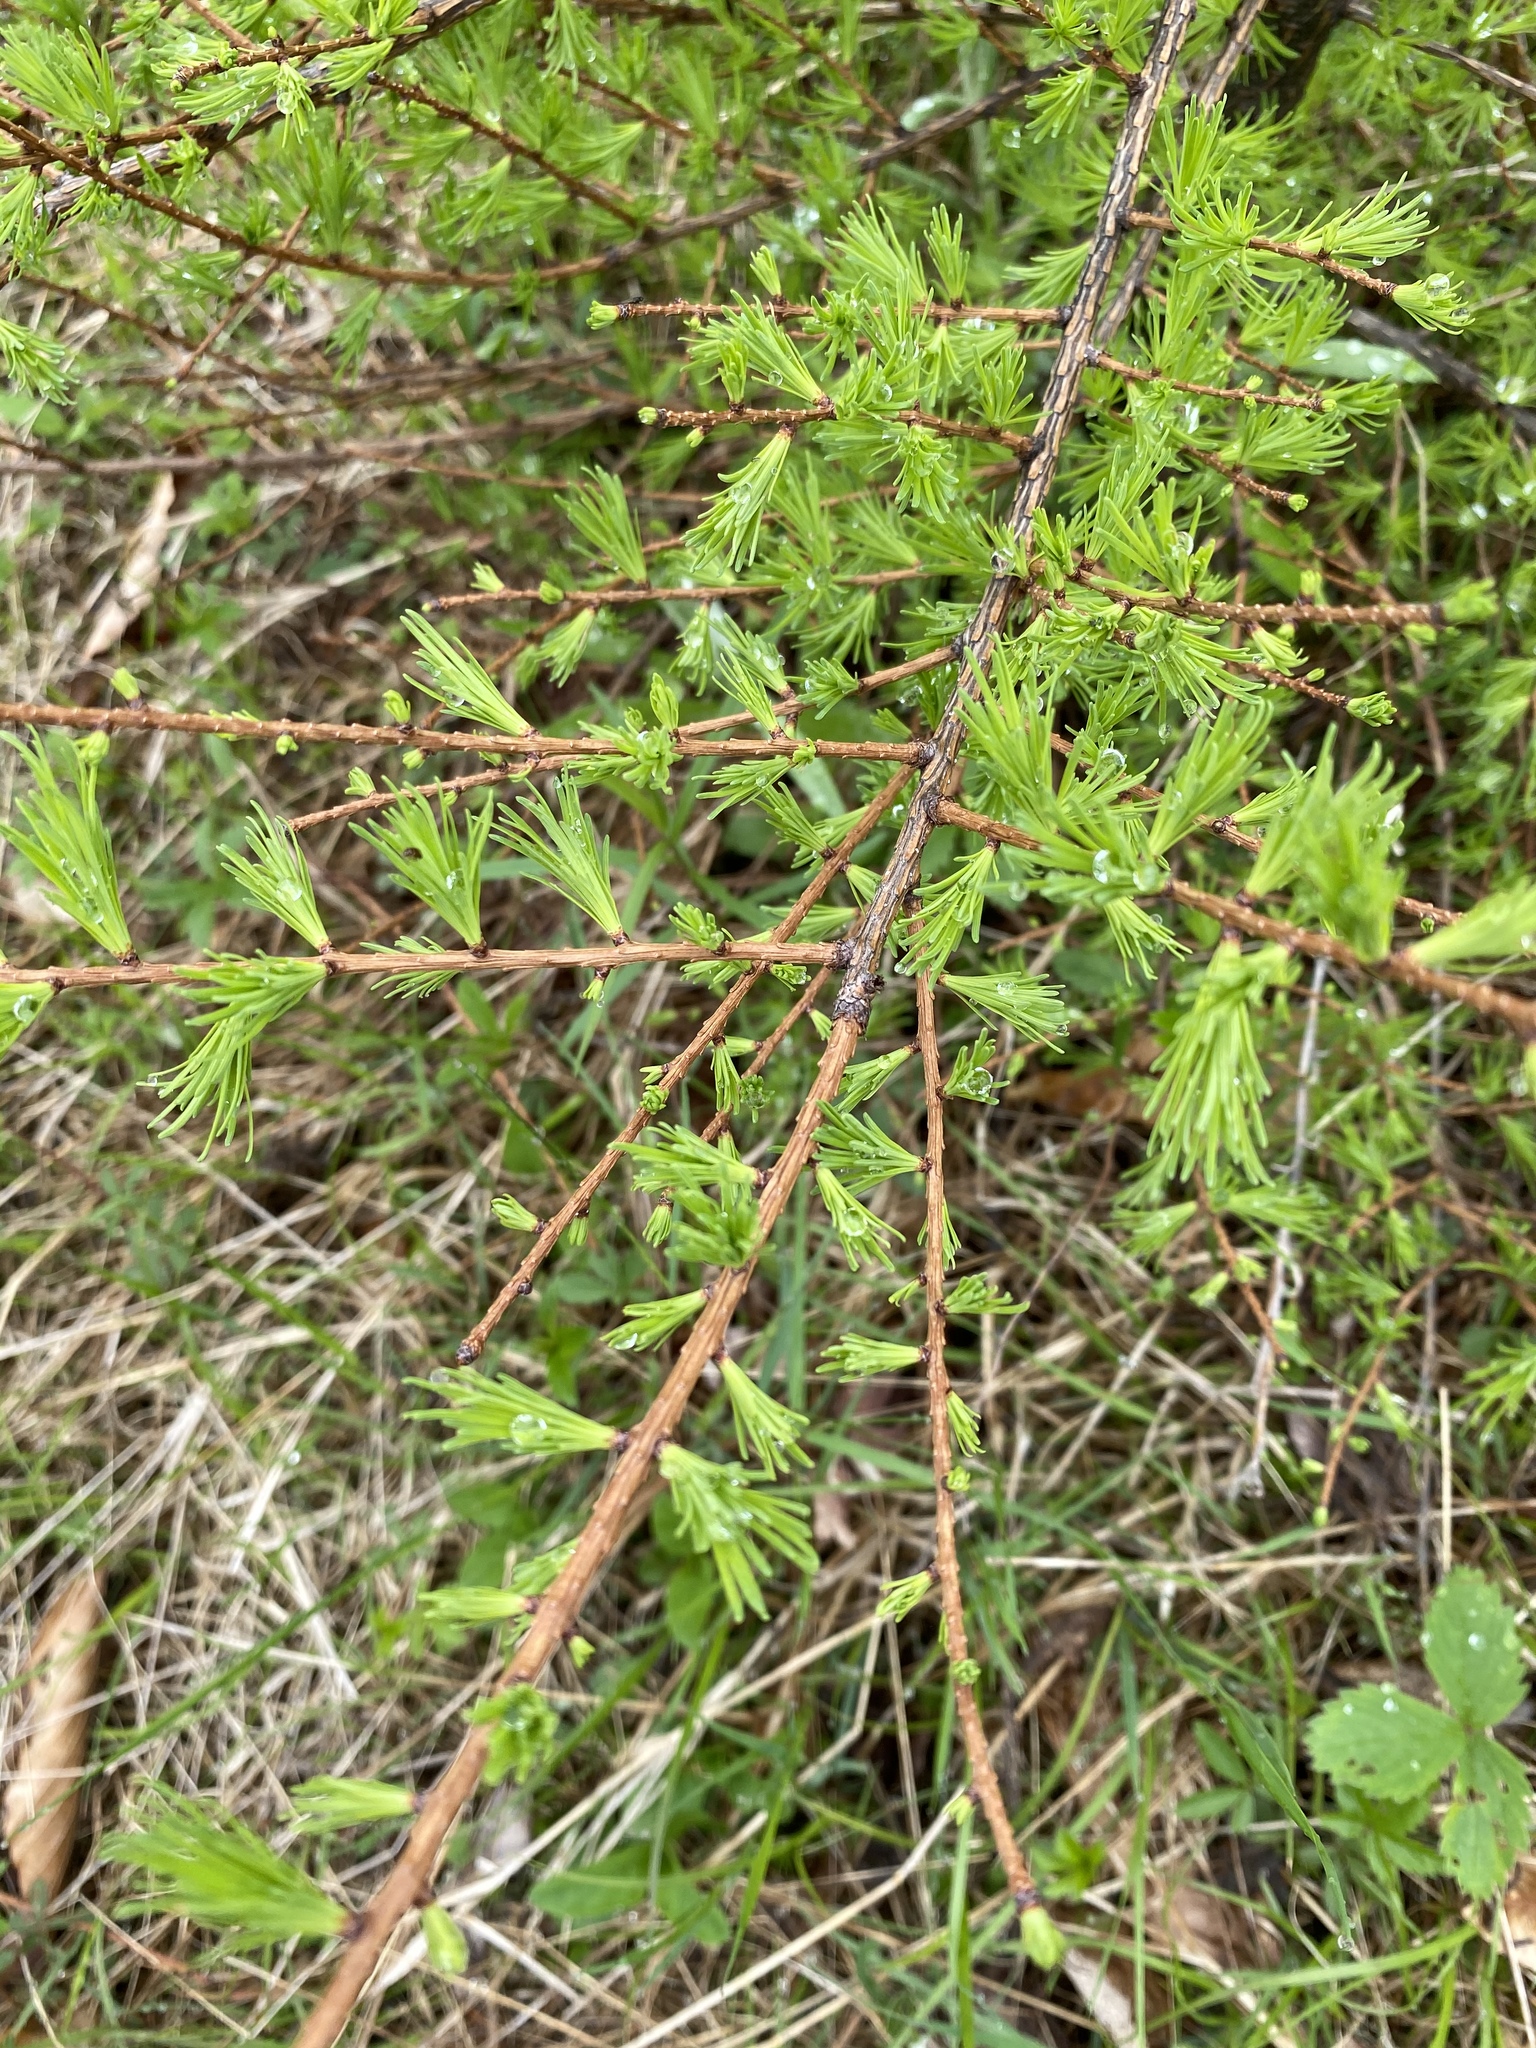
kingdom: Plantae
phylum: Tracheophyta
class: Pinopsida
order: Pinales
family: Pinaceae
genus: Larix
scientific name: Larix laricina
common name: American larch
